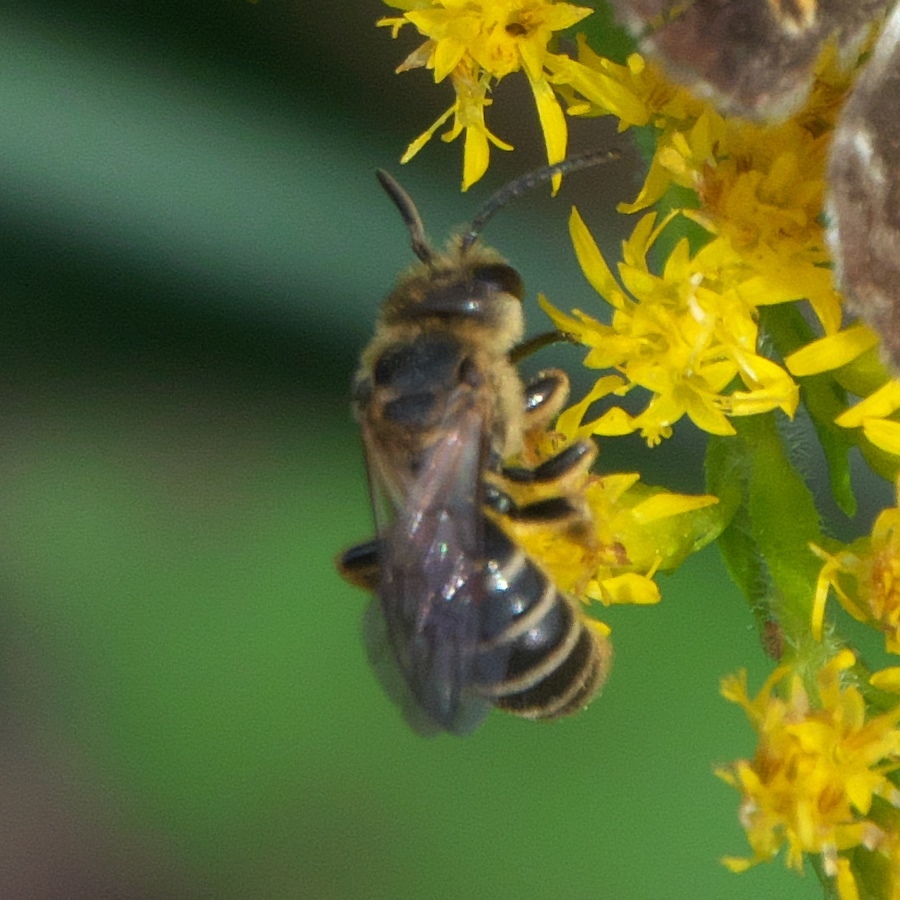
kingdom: Animalia
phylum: Arthropoda
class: Insecta
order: Hymenoptera
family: Halictidae
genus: Halictus
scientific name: Halictus poeyi
